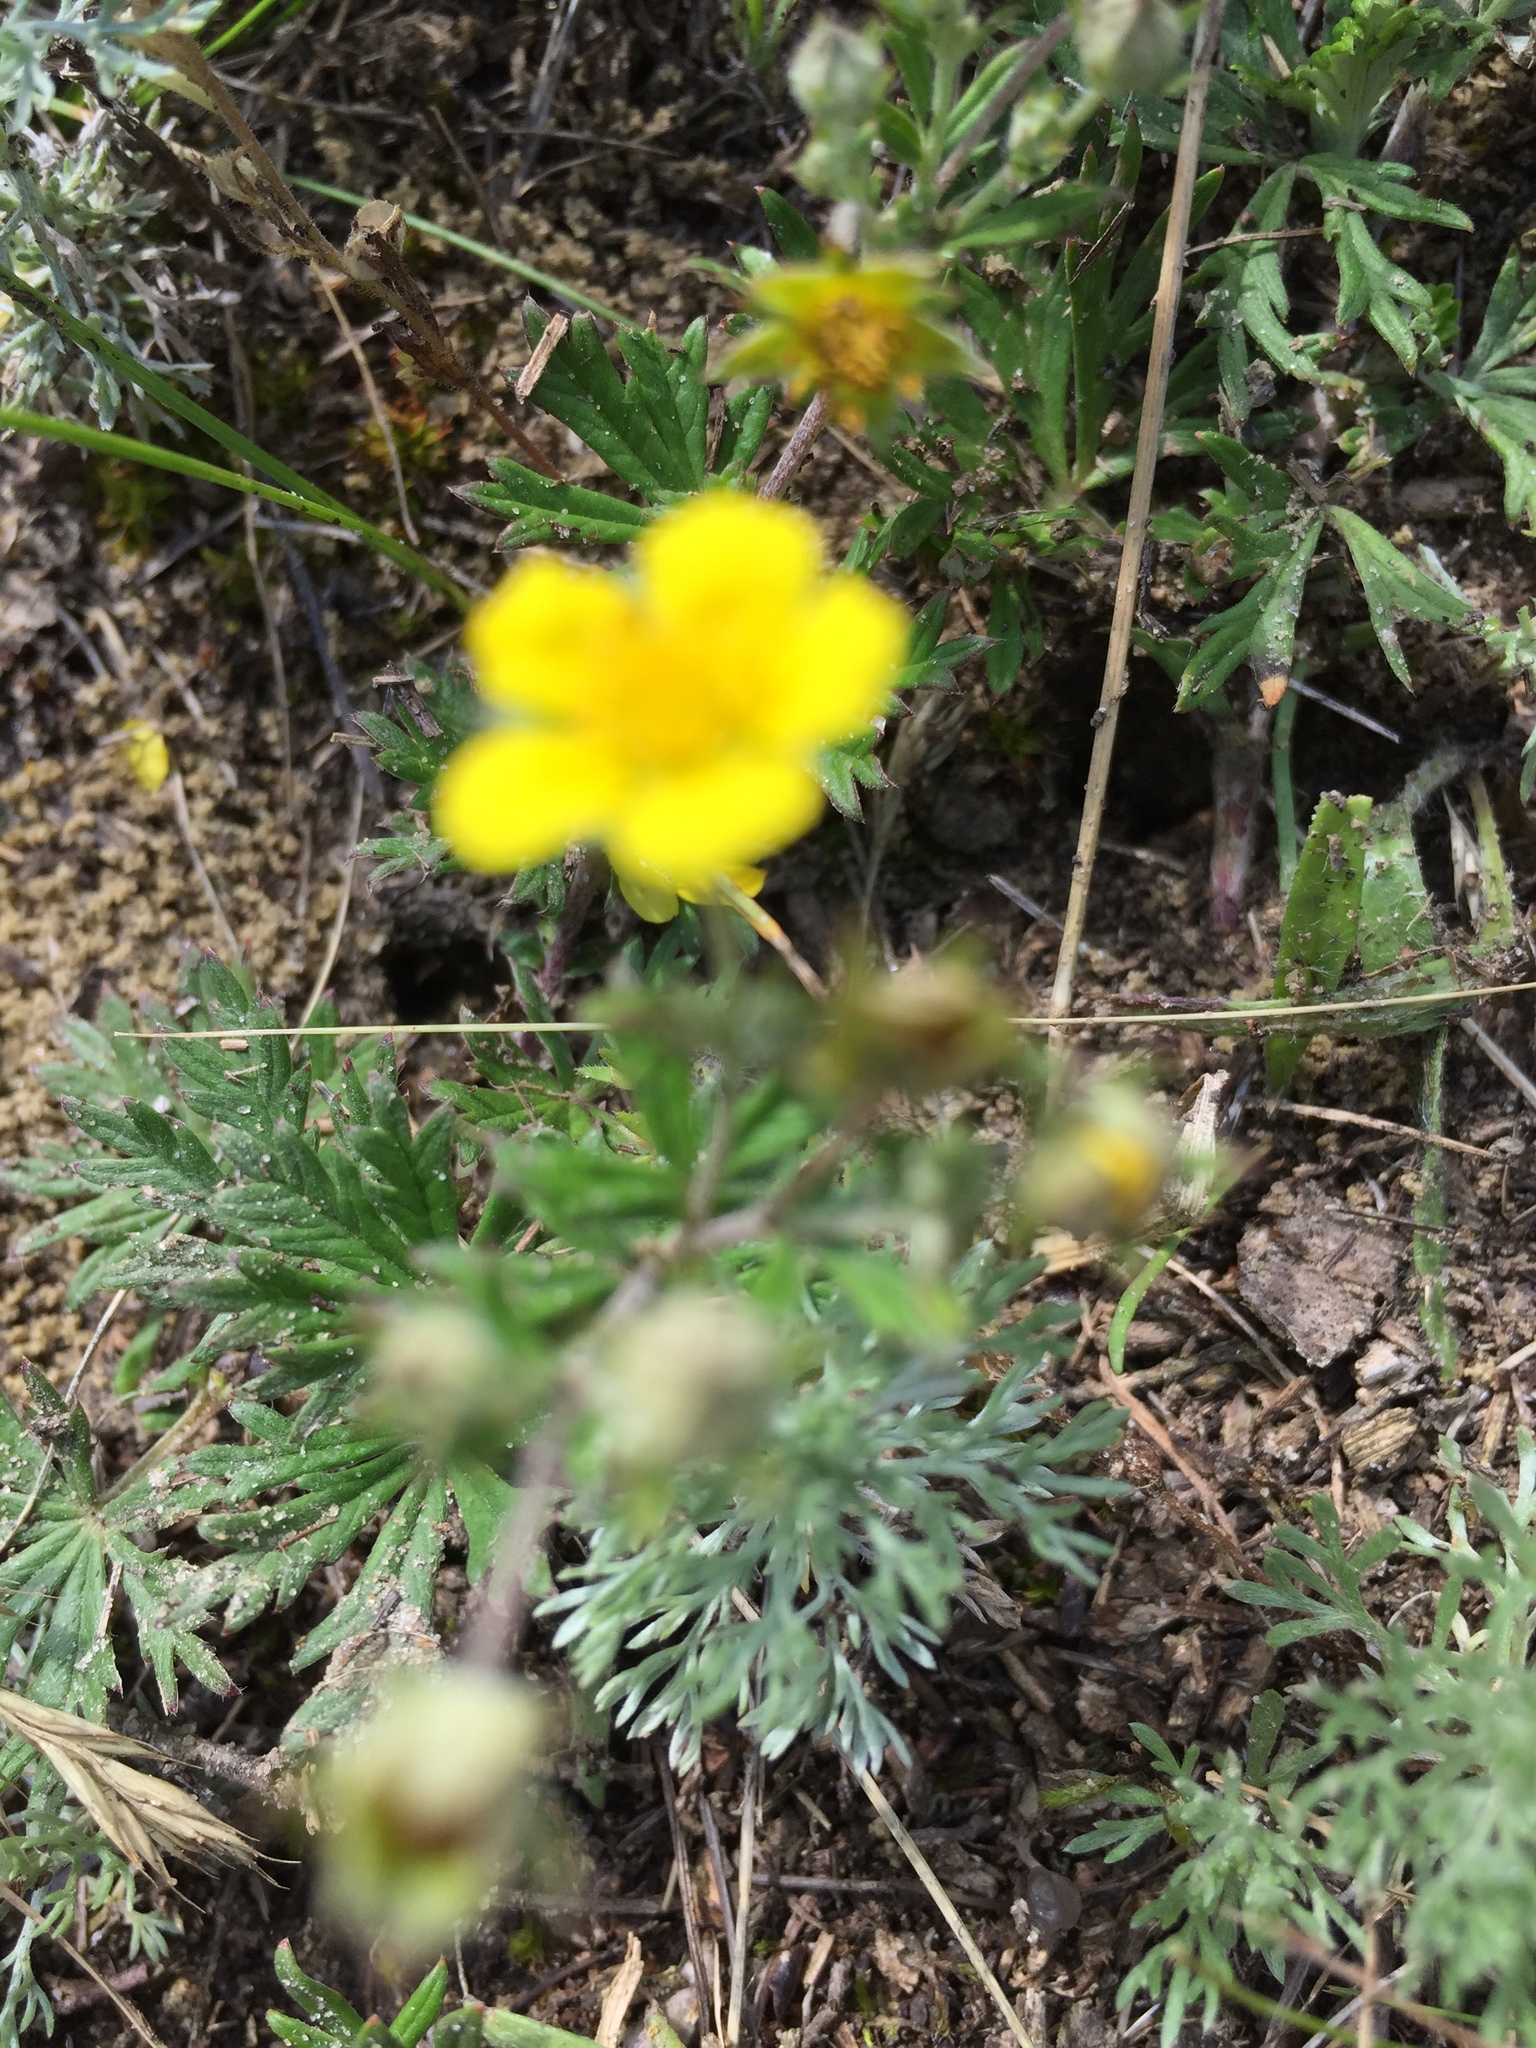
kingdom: Plantae
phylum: Tracheophyta
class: Magnoliopsida
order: Rosales
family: Rosaceae
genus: Potentilla
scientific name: Potentilla argentea
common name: Hoary cinquefoil
